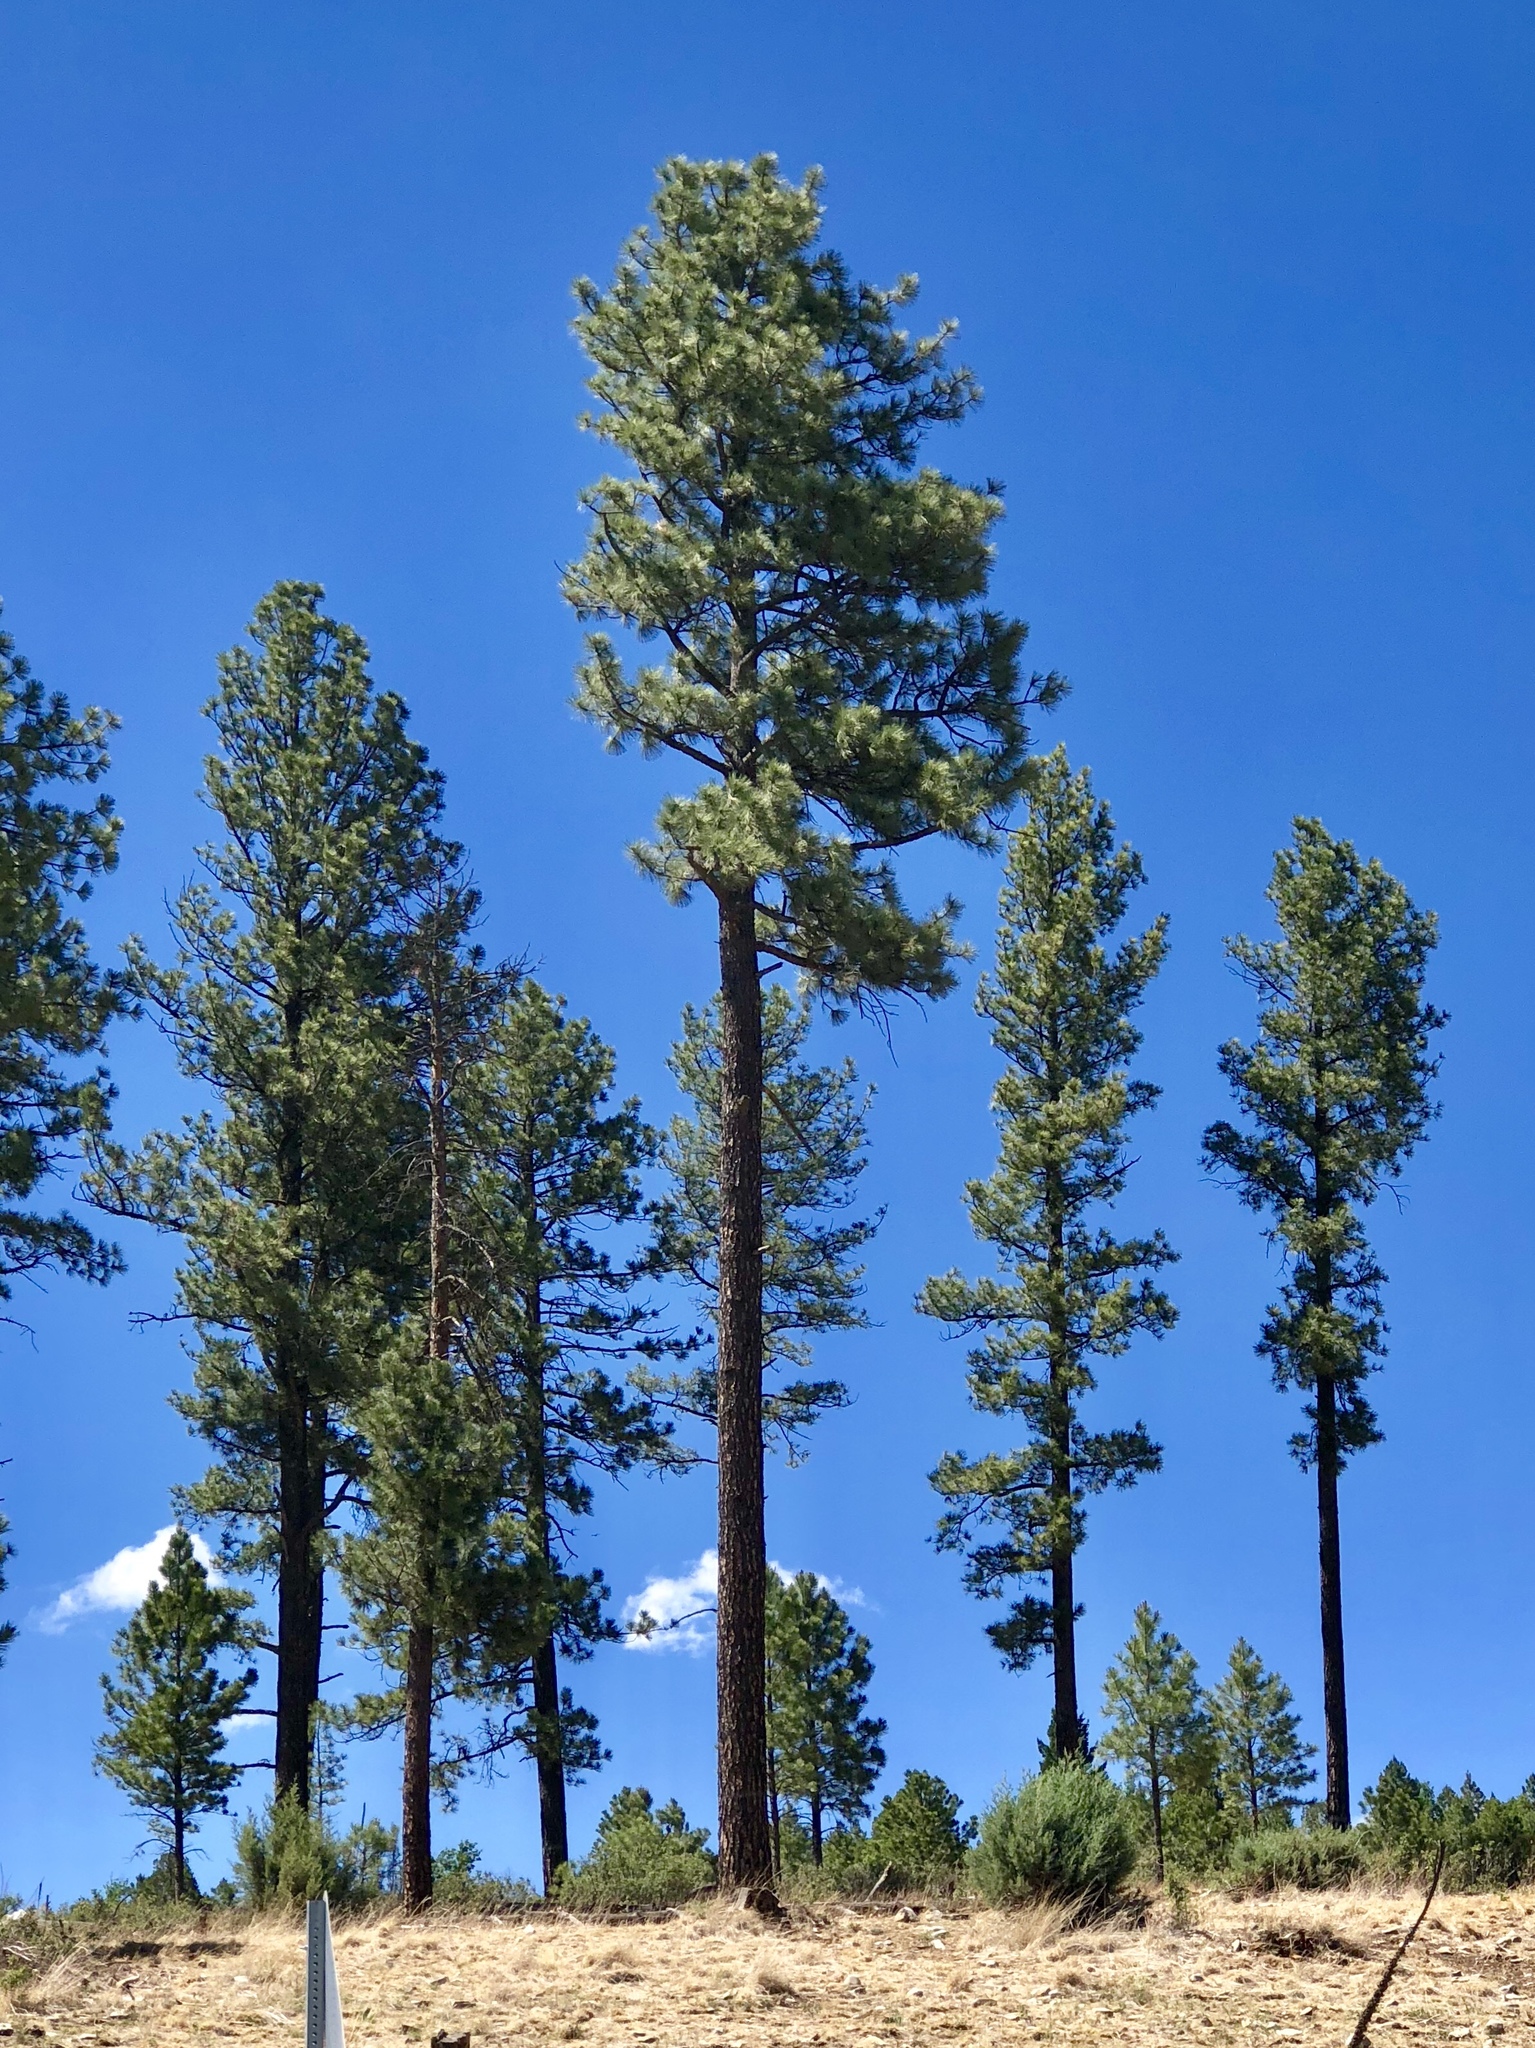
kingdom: Plantae
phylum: Tracheophyta
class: Pinopsida
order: Pinales
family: Pinaceae
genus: Pinus
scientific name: Pinus ponderosa
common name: Western yellow-pine
